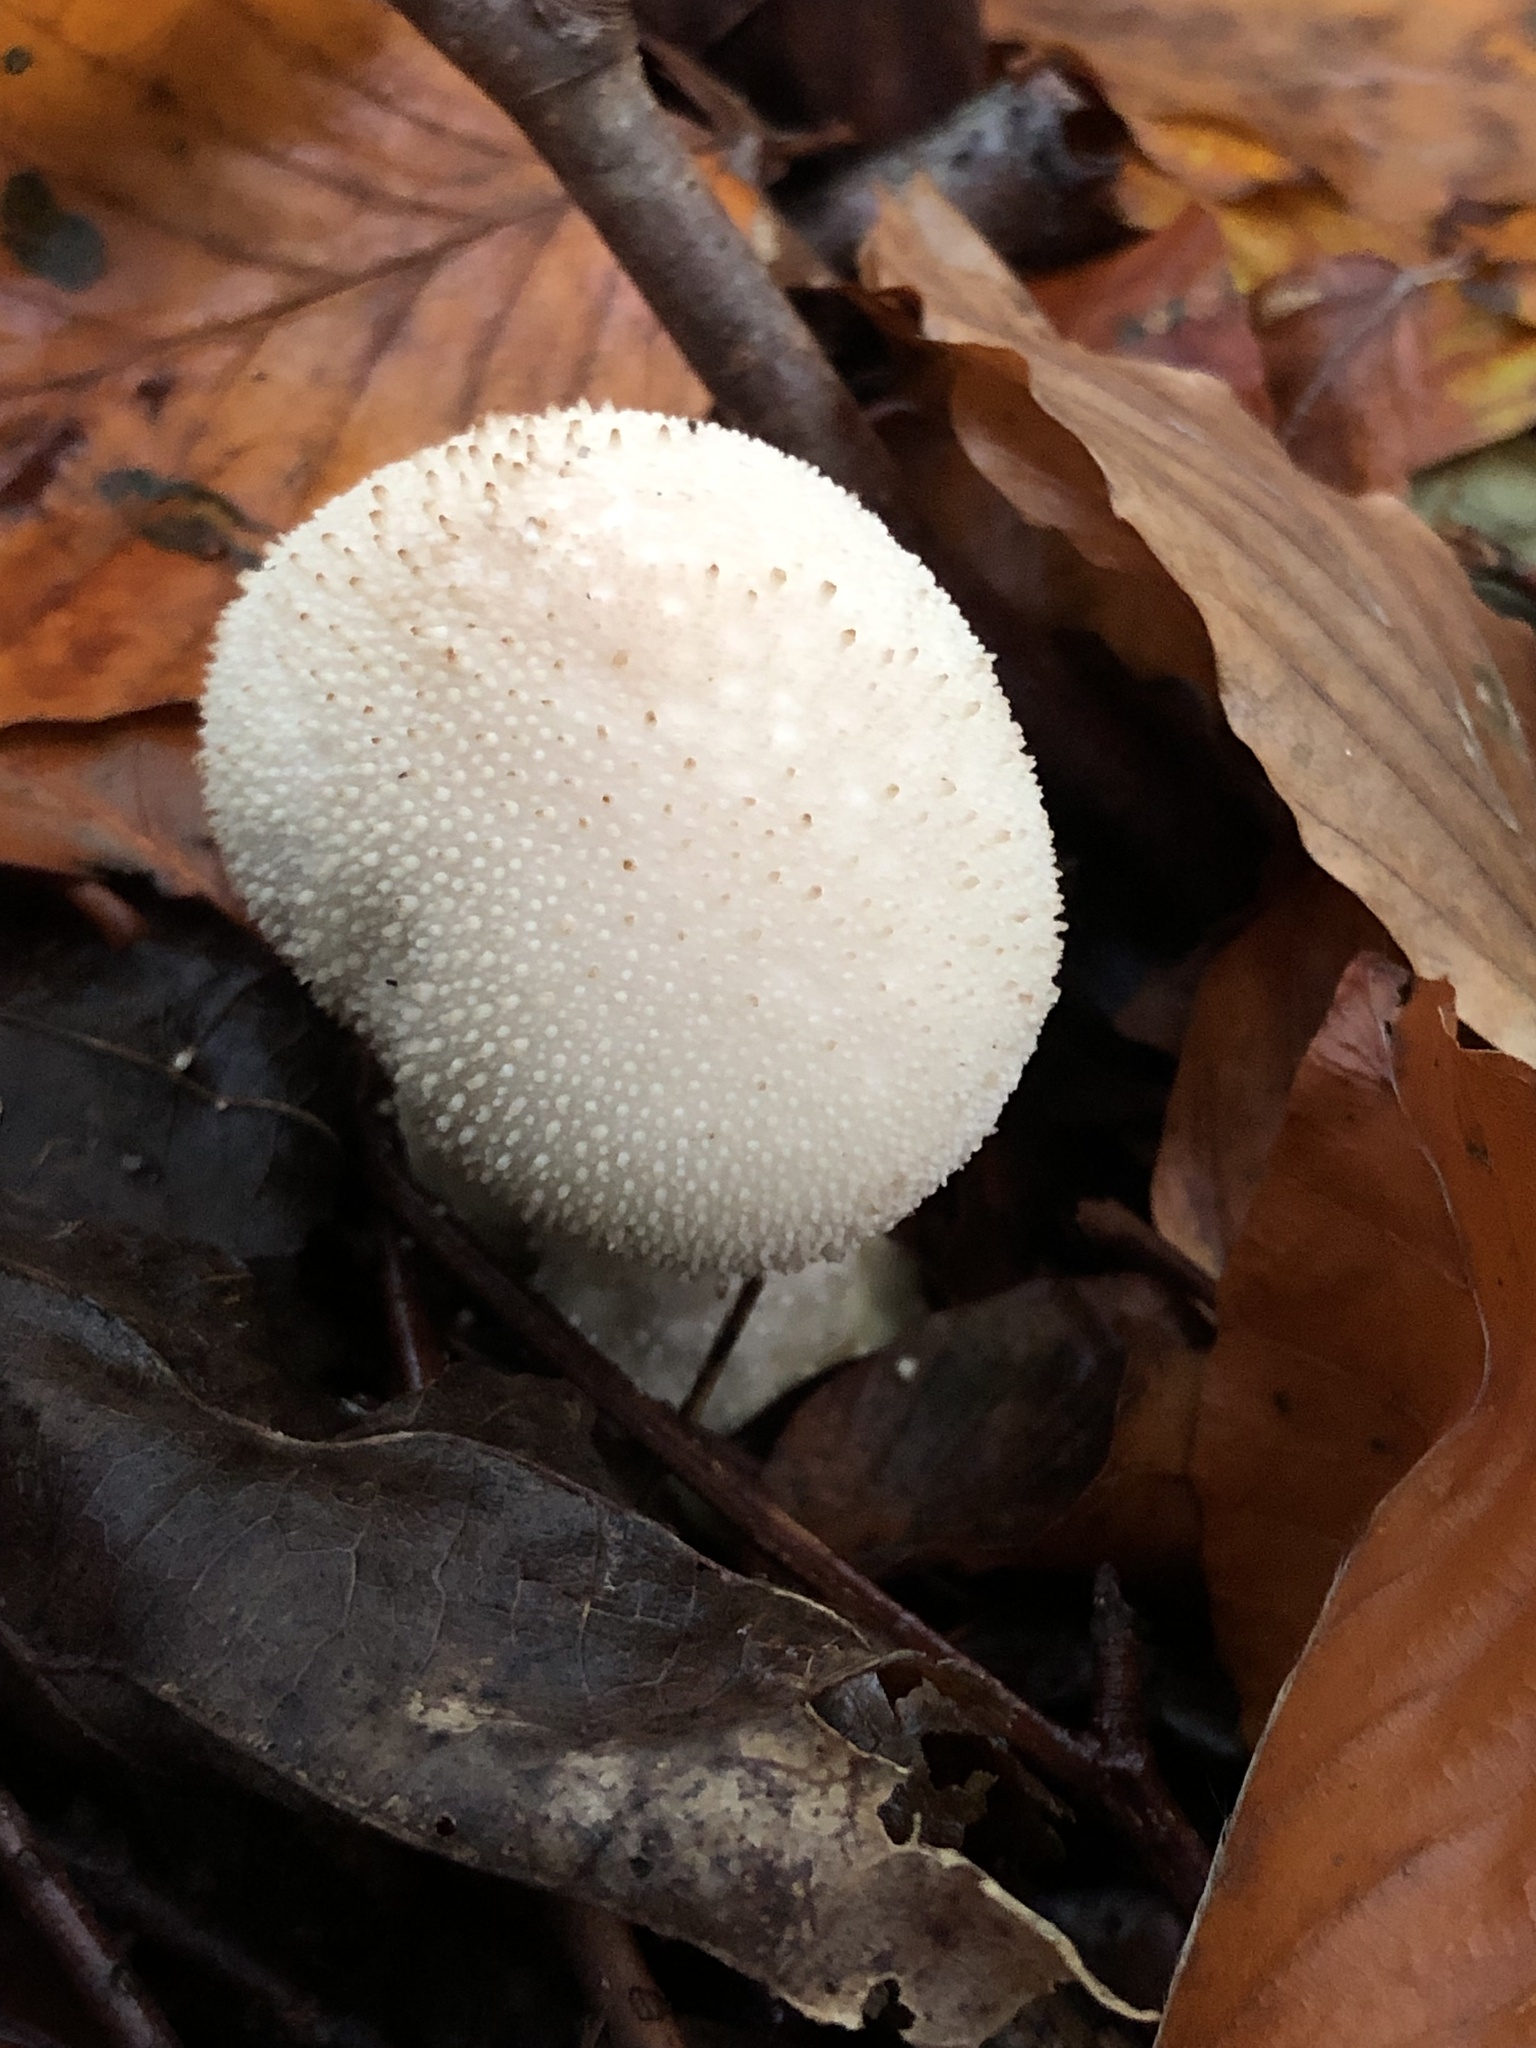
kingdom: Fungi
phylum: Basidiomycota
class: Agaricomycetes
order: Agaricales
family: Lycoperdaceae
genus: Lycoperdon
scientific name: Lycoperdon perlatum
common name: Common puffball
